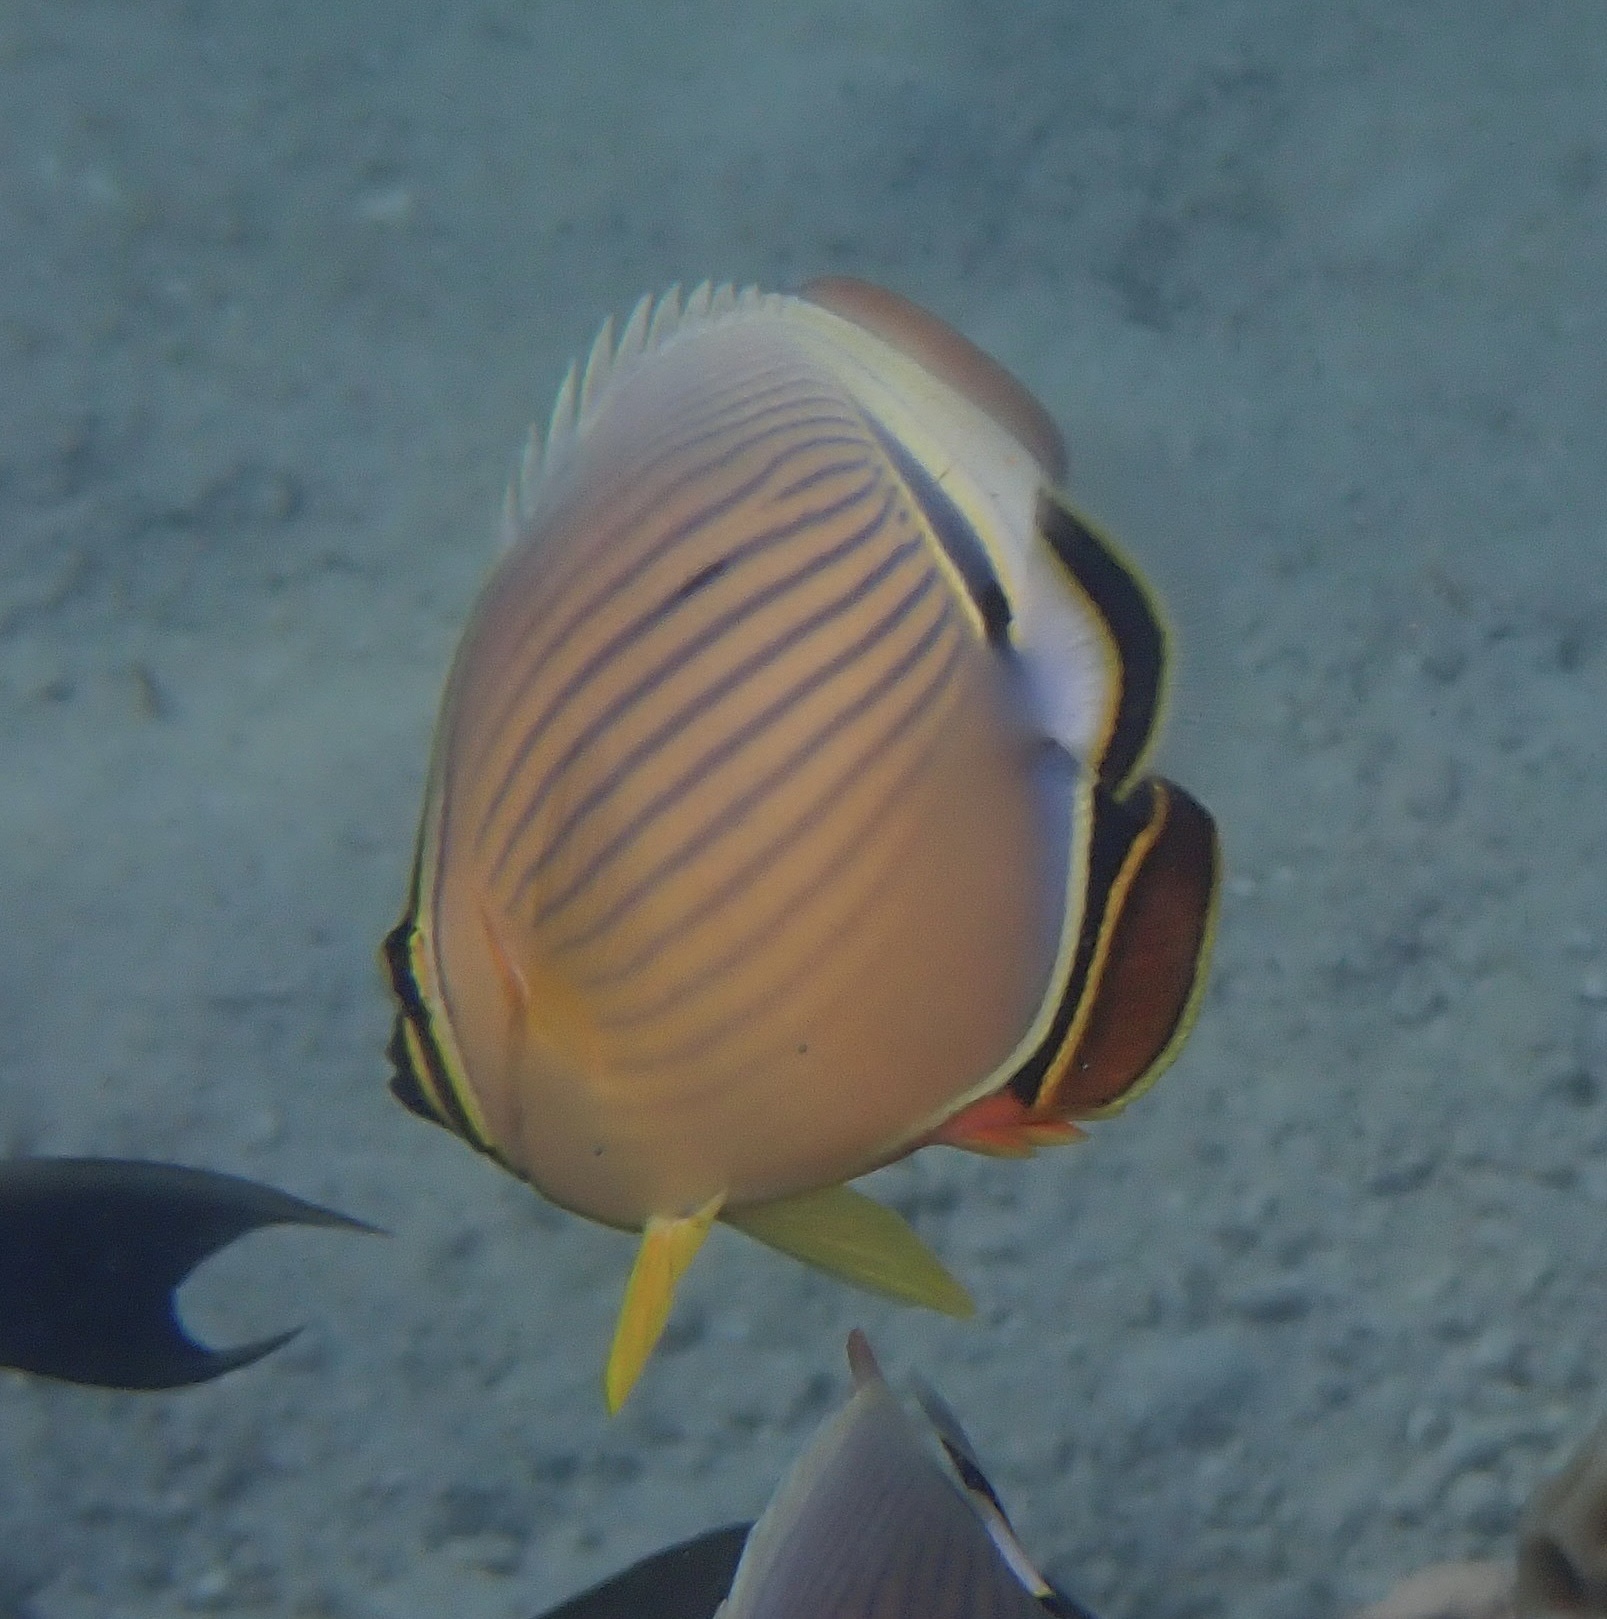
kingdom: Animalia
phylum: Chordata
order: Perciformes
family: Chaetodontidae
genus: Chaetodon
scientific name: Chaetodon lunulatus
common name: Redfin butterflyfish
